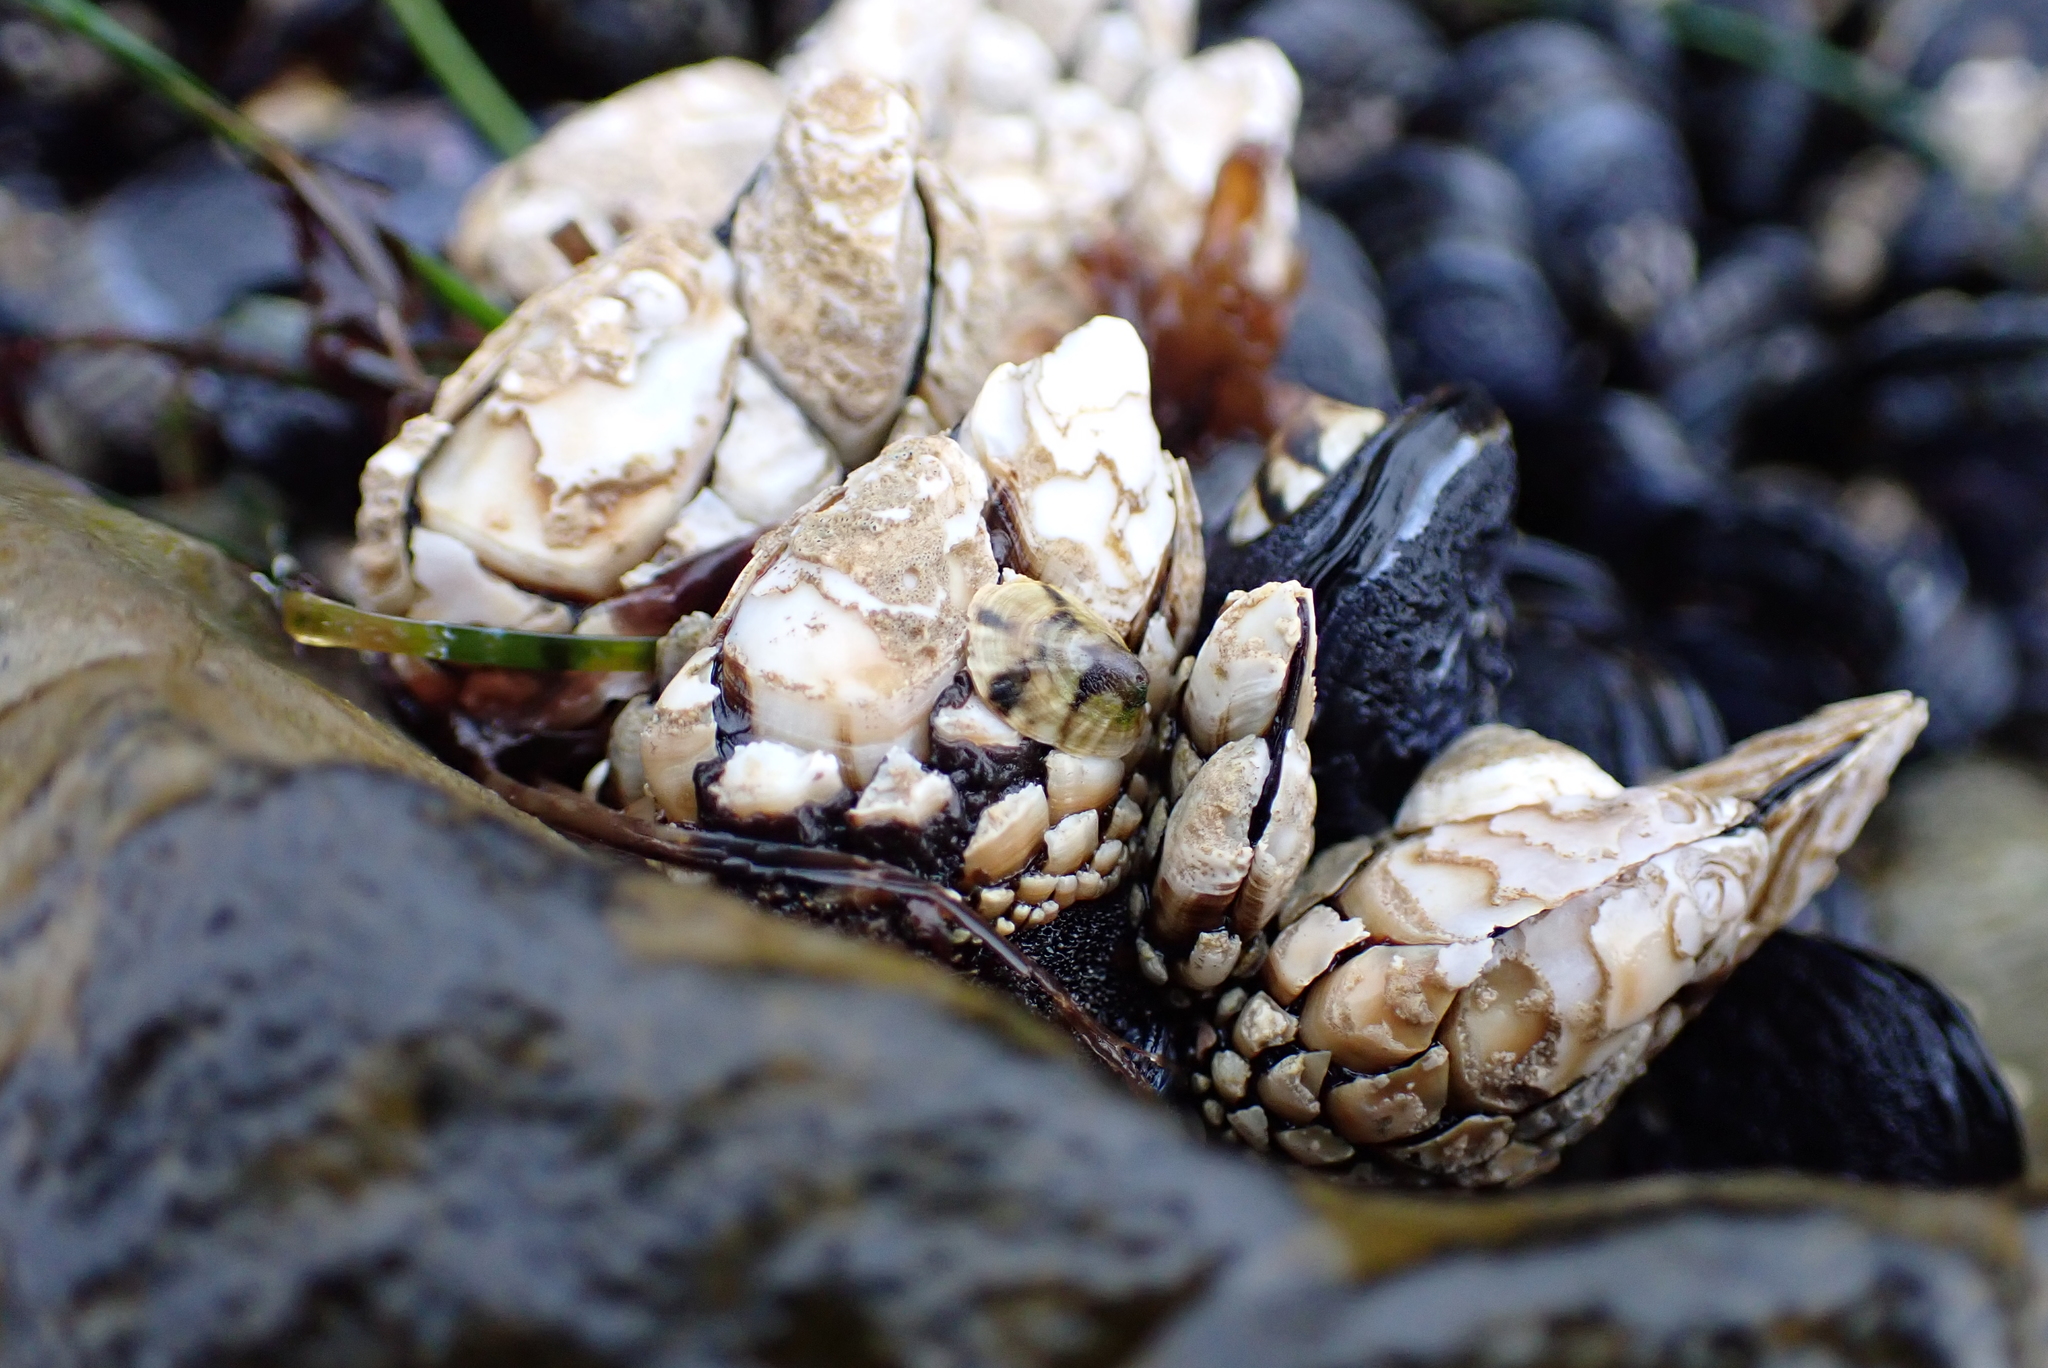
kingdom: Animalia
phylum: Arthropoda
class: Maxillopoda
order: Pedunculata
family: Pollicipedidae
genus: Pollicipes
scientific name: Pollicipes polymerus
